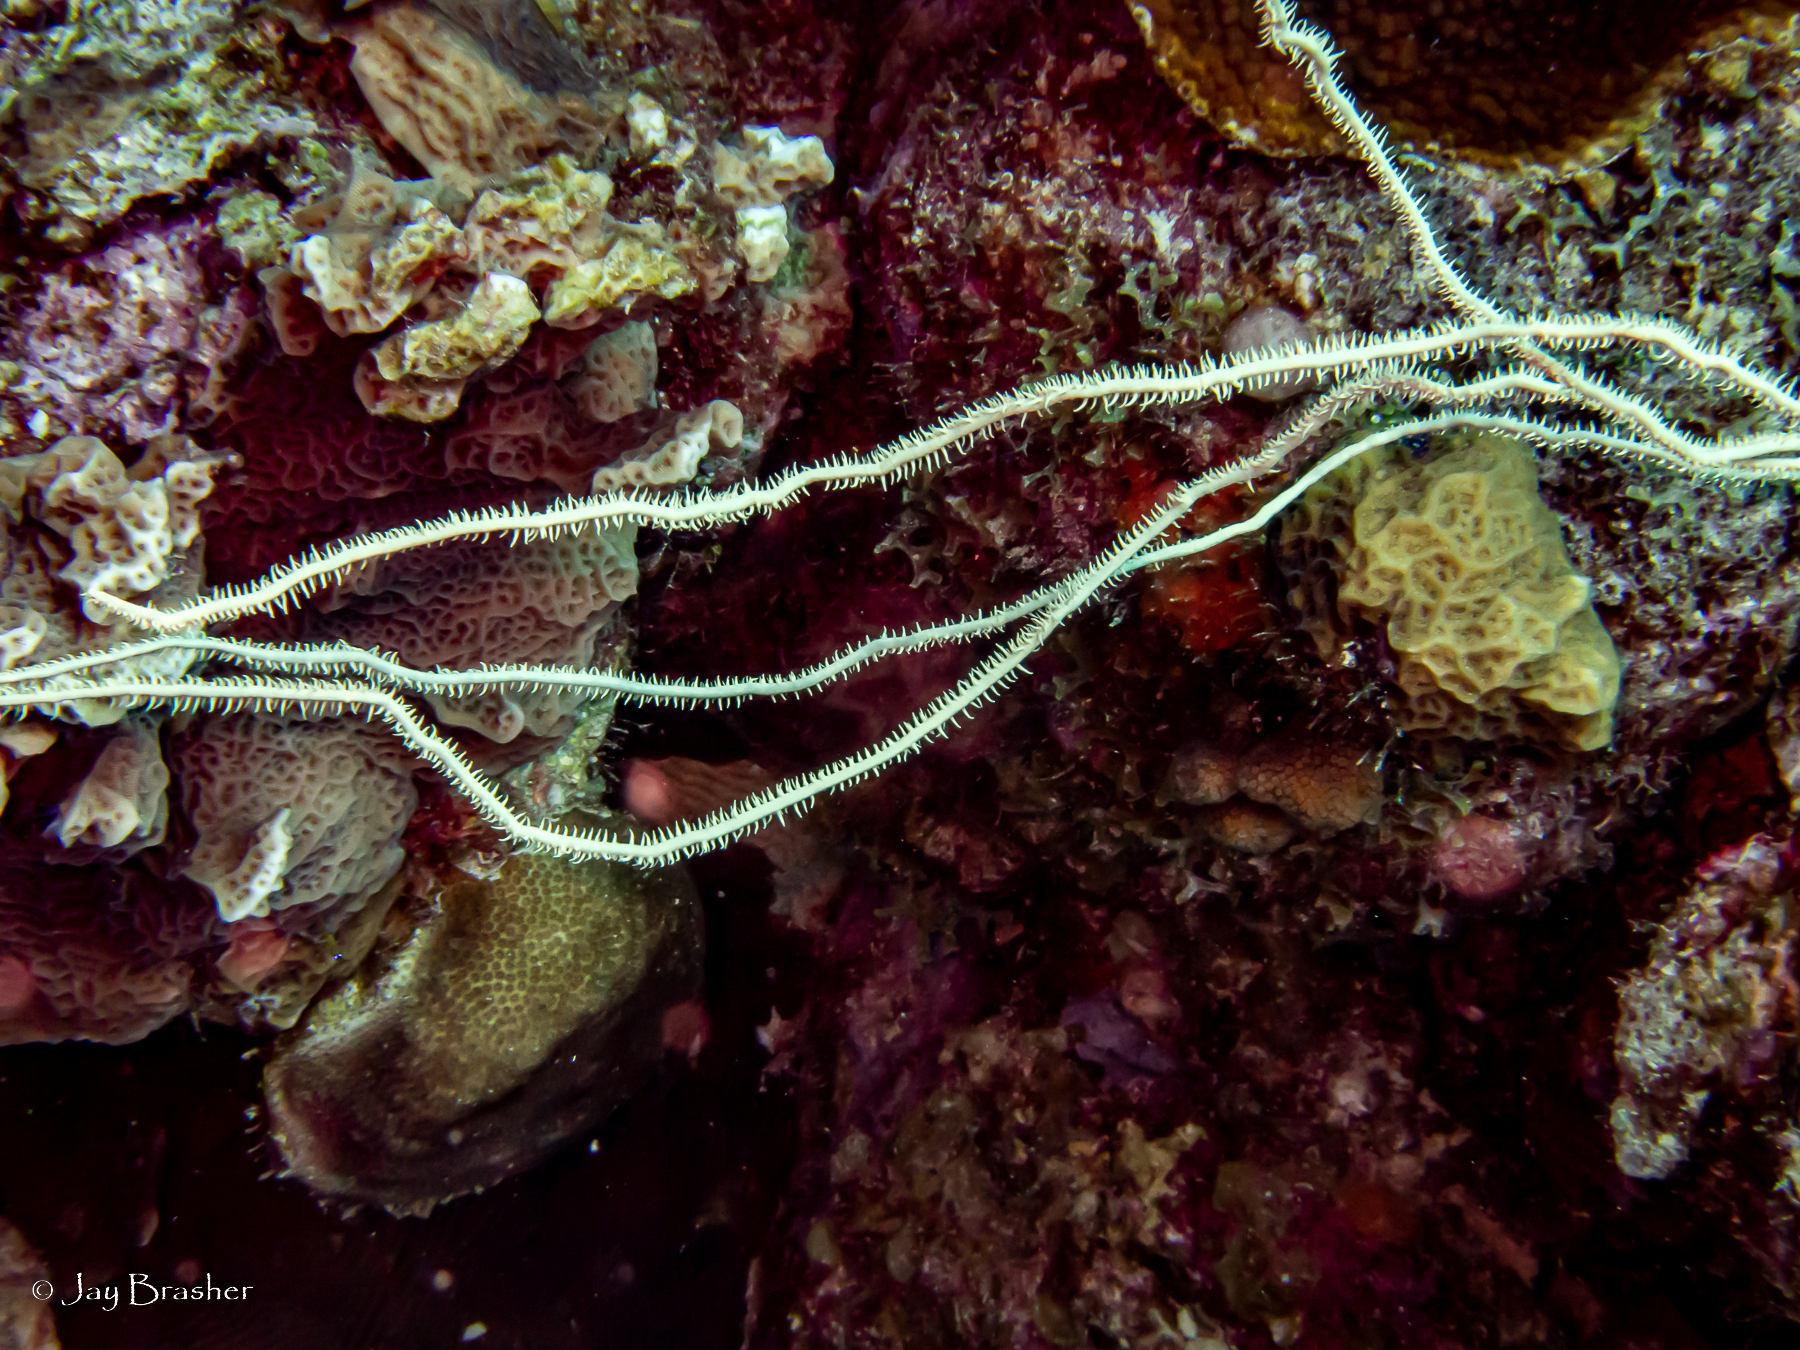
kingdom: Animalia
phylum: Cnidaria
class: Anthozoa
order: Antipatharia
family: Antipathidae
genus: Stichopathes
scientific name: Stichopathes luetkeni
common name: Black wire coral
